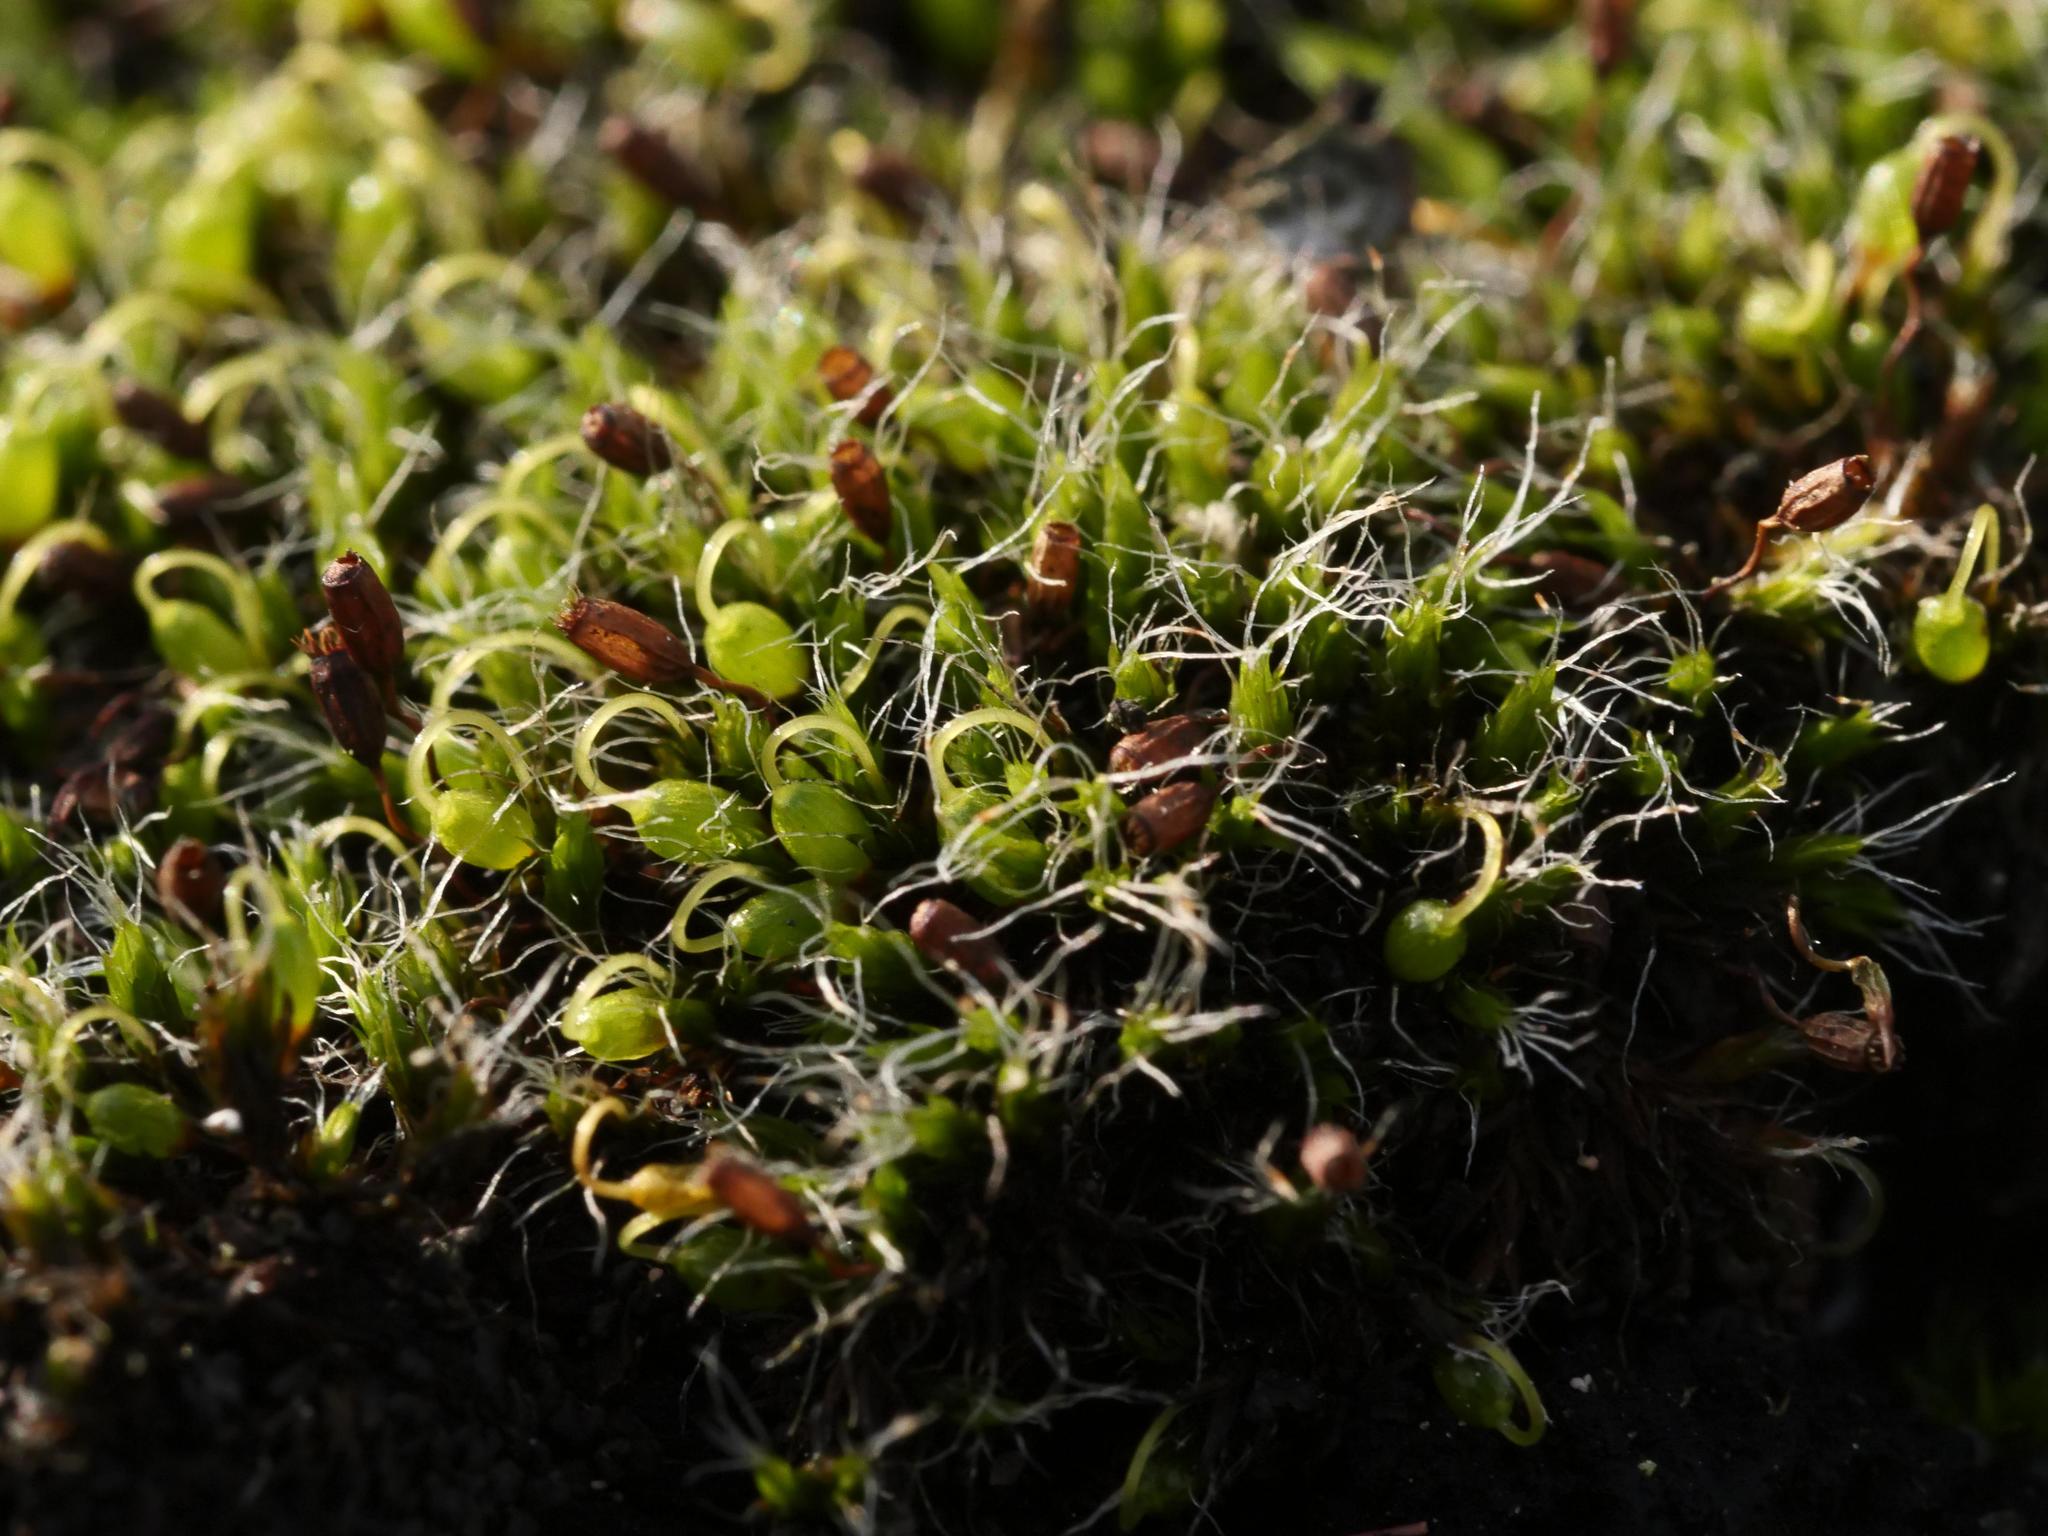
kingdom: Plantae
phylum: Bryophyta
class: Bryopsida
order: Grimmiales
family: Grimmiaceae
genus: Grimmia
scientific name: Grimmia pulvinata
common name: Grey-cushioned grimmia
